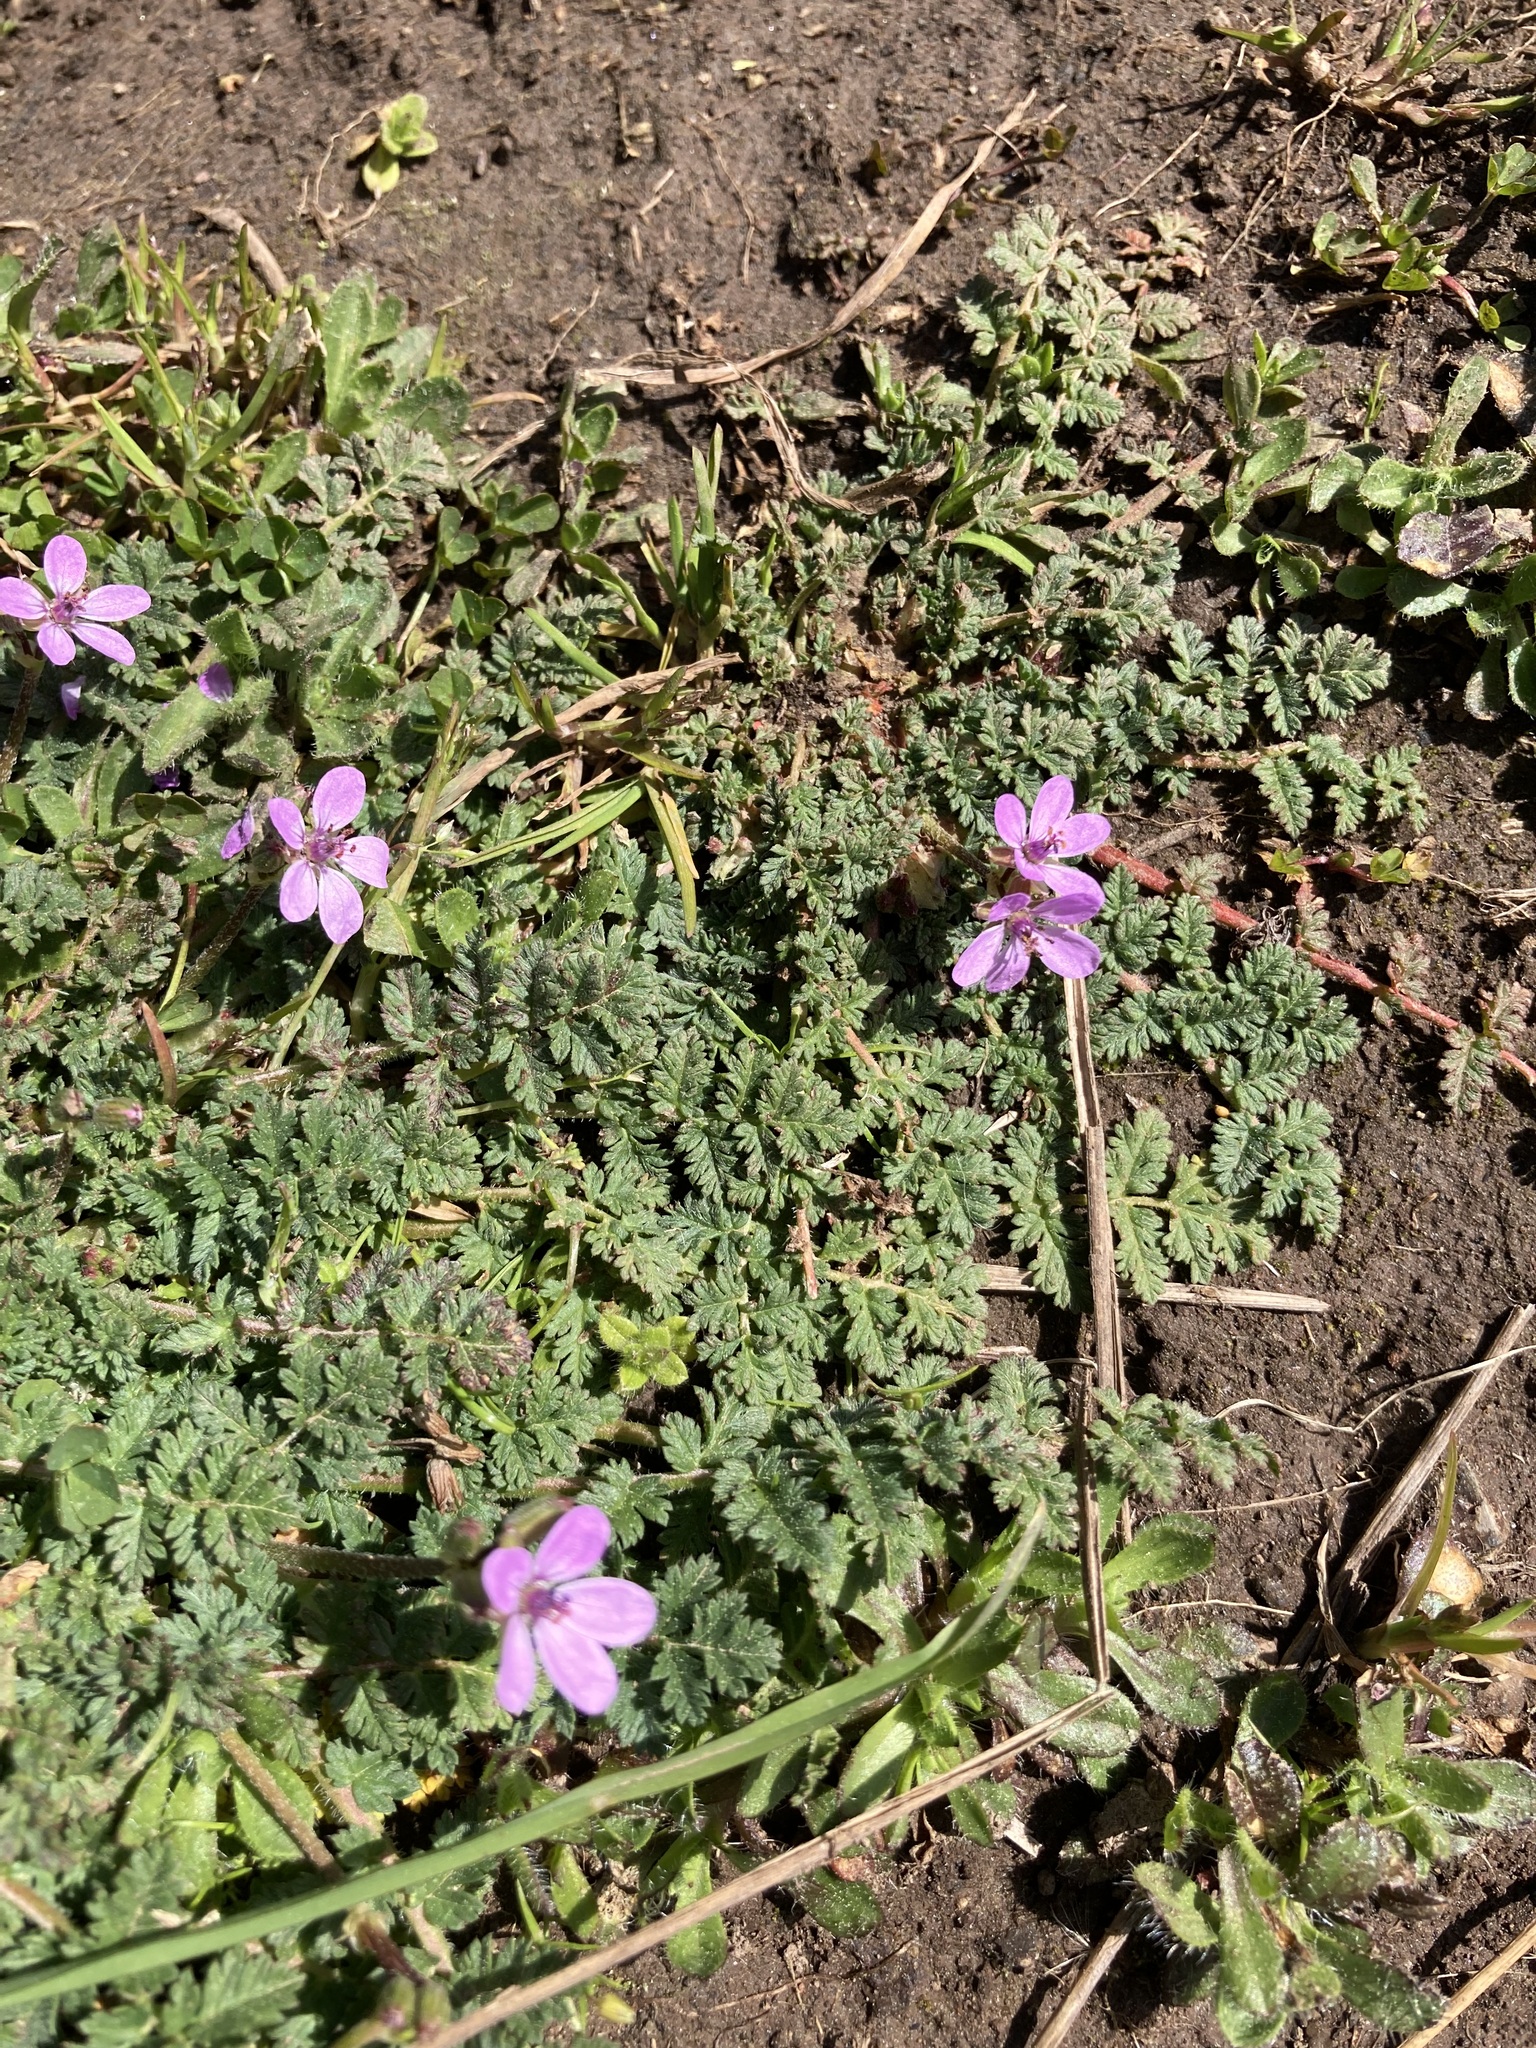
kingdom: Plantae
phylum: Tracheophyta
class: Magnoliopsida
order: Geraniales
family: Geraniaceae
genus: Erodium
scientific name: Erodium cicutarium
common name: Common stork's-bill
